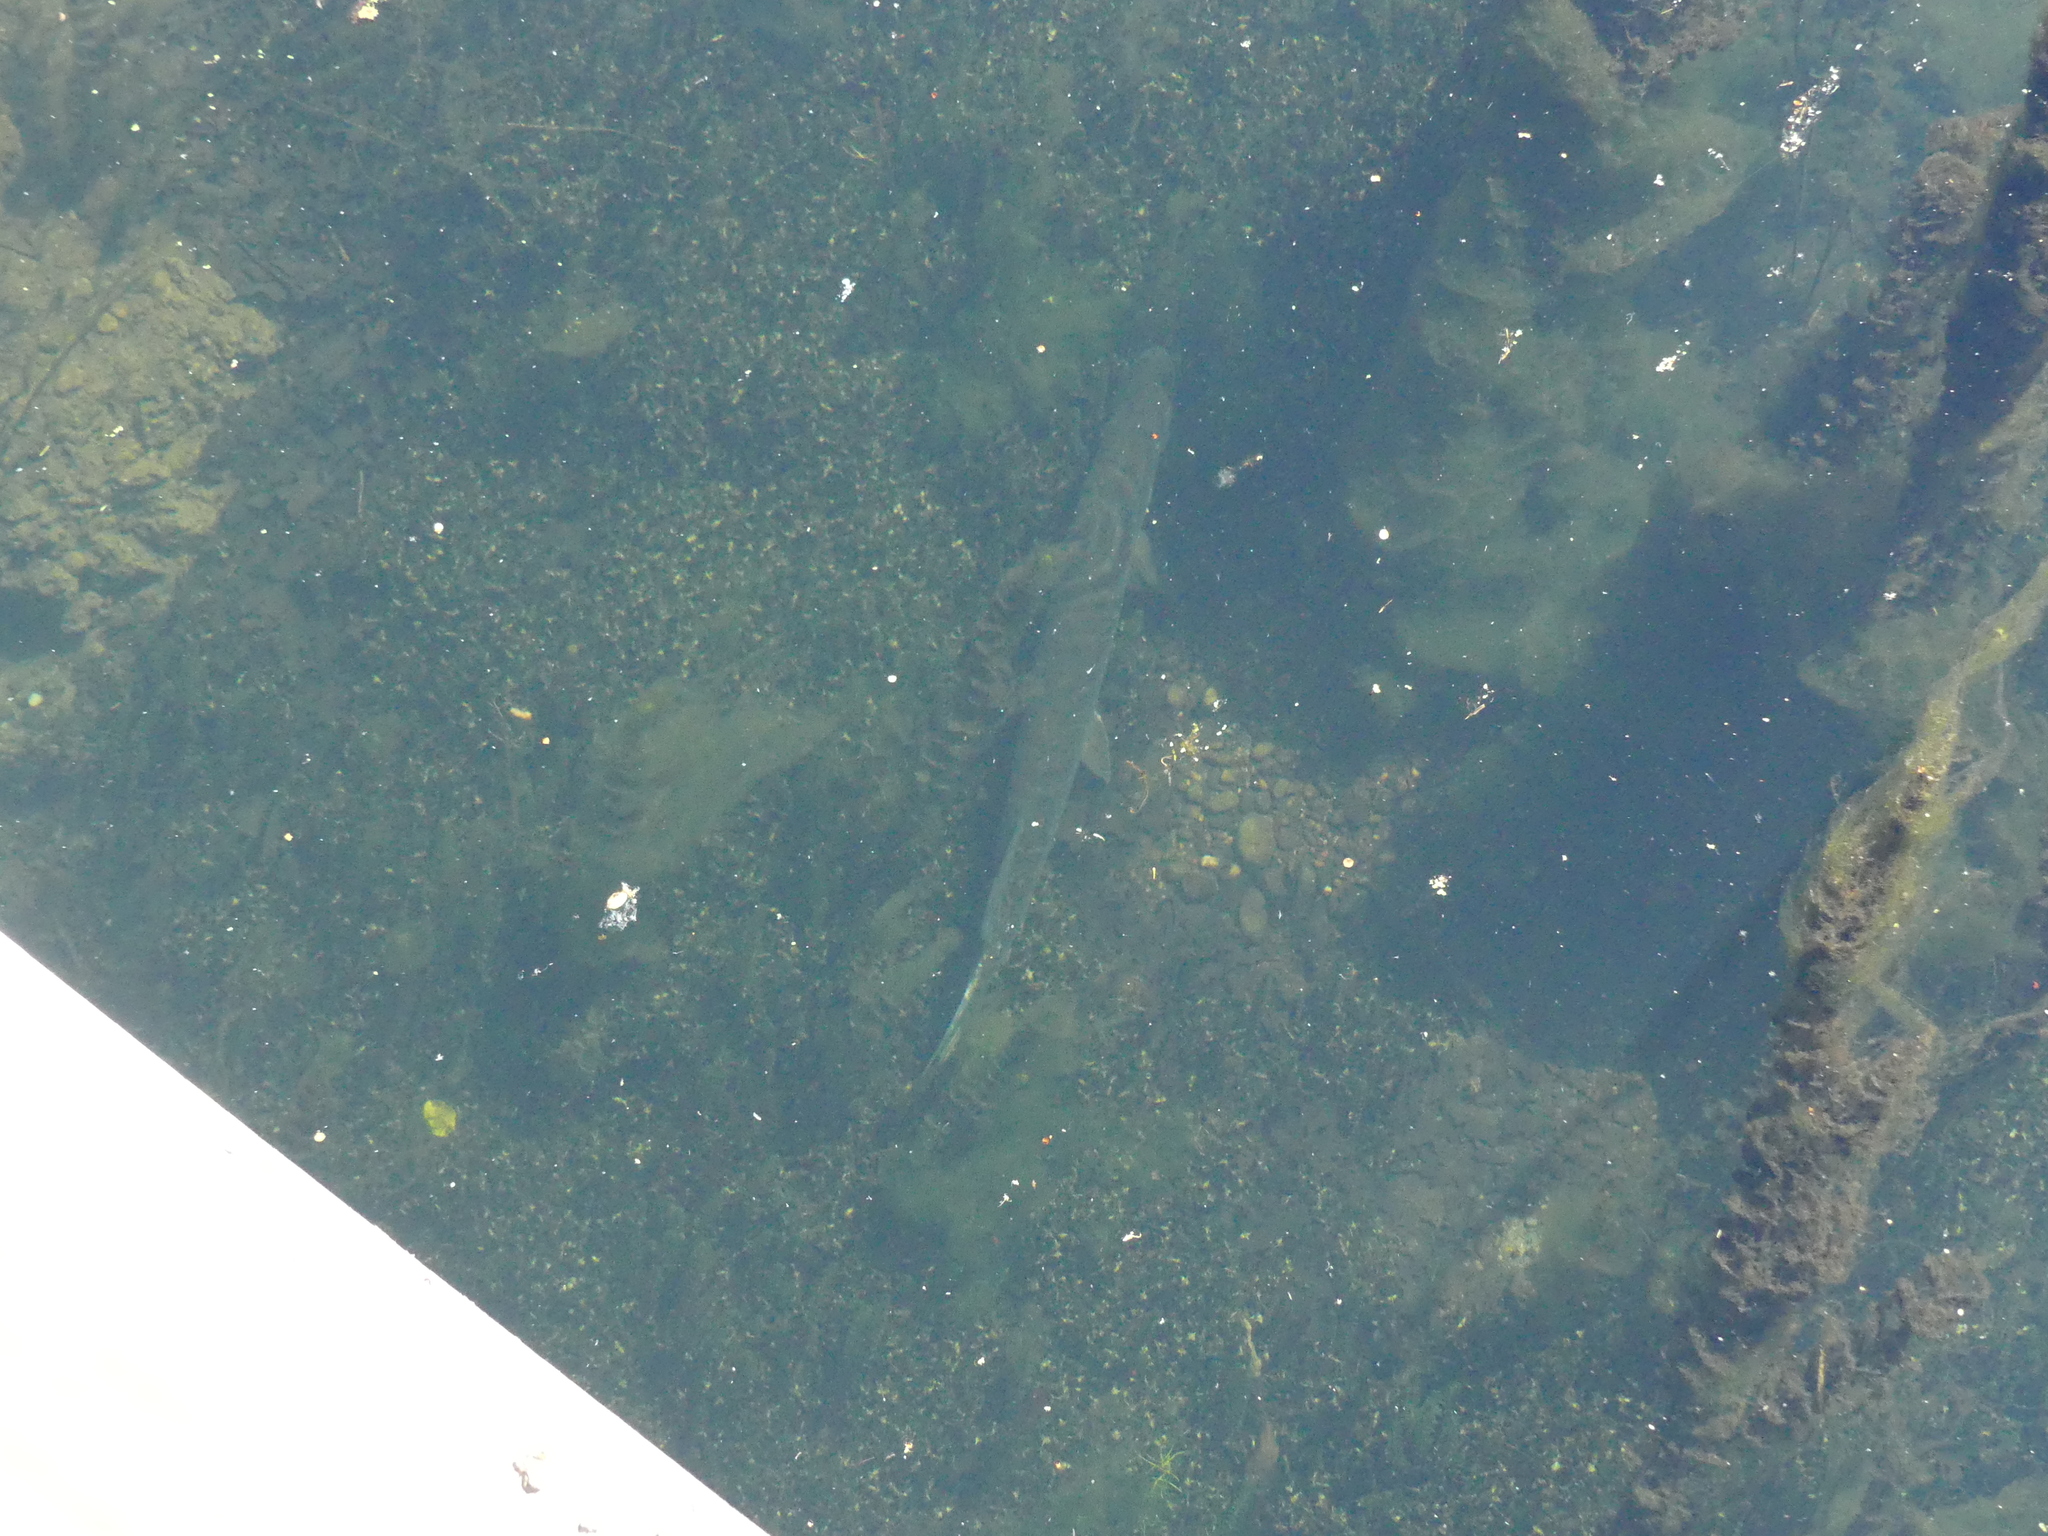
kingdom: Animalia
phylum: Chordata
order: Esociformes
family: Esocidae
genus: Esox
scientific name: Esox lucius
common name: Northern pike
